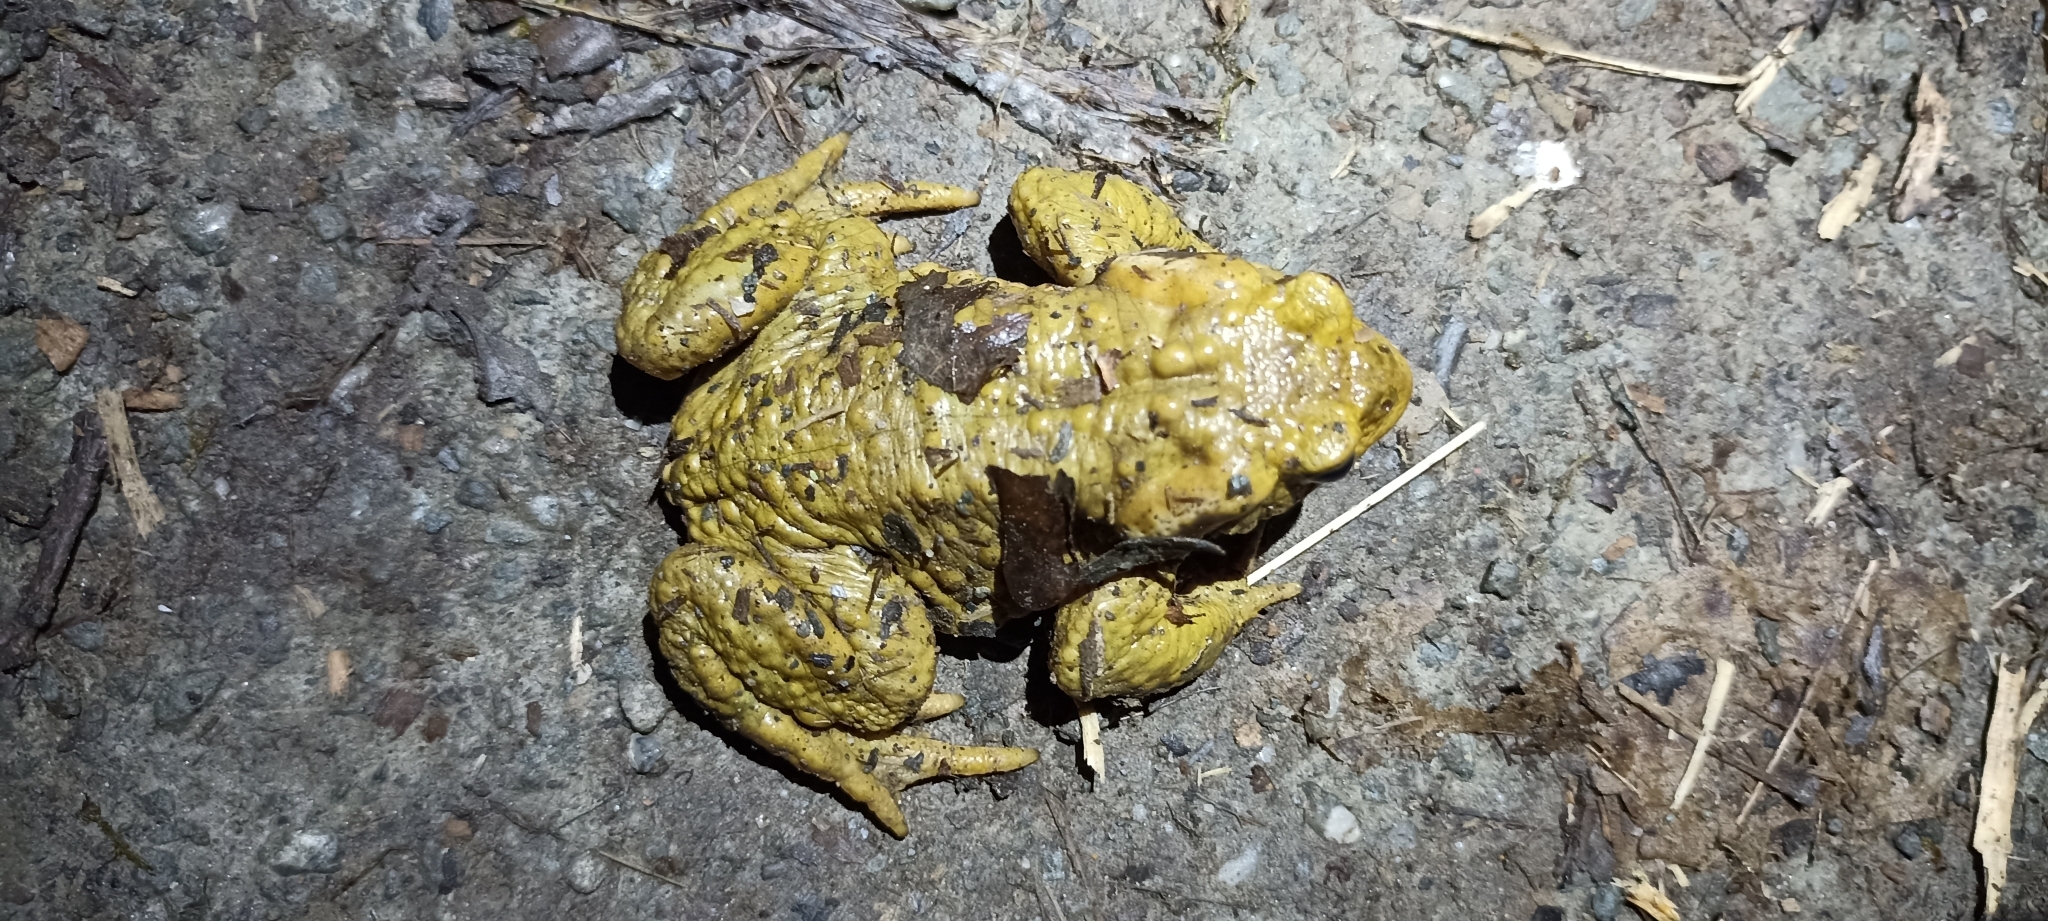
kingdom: Animalia
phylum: Chordata
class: Amphibia
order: Anura
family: Bufonidae
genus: Bufo
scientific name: Bufo spinosus
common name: Western common toad
